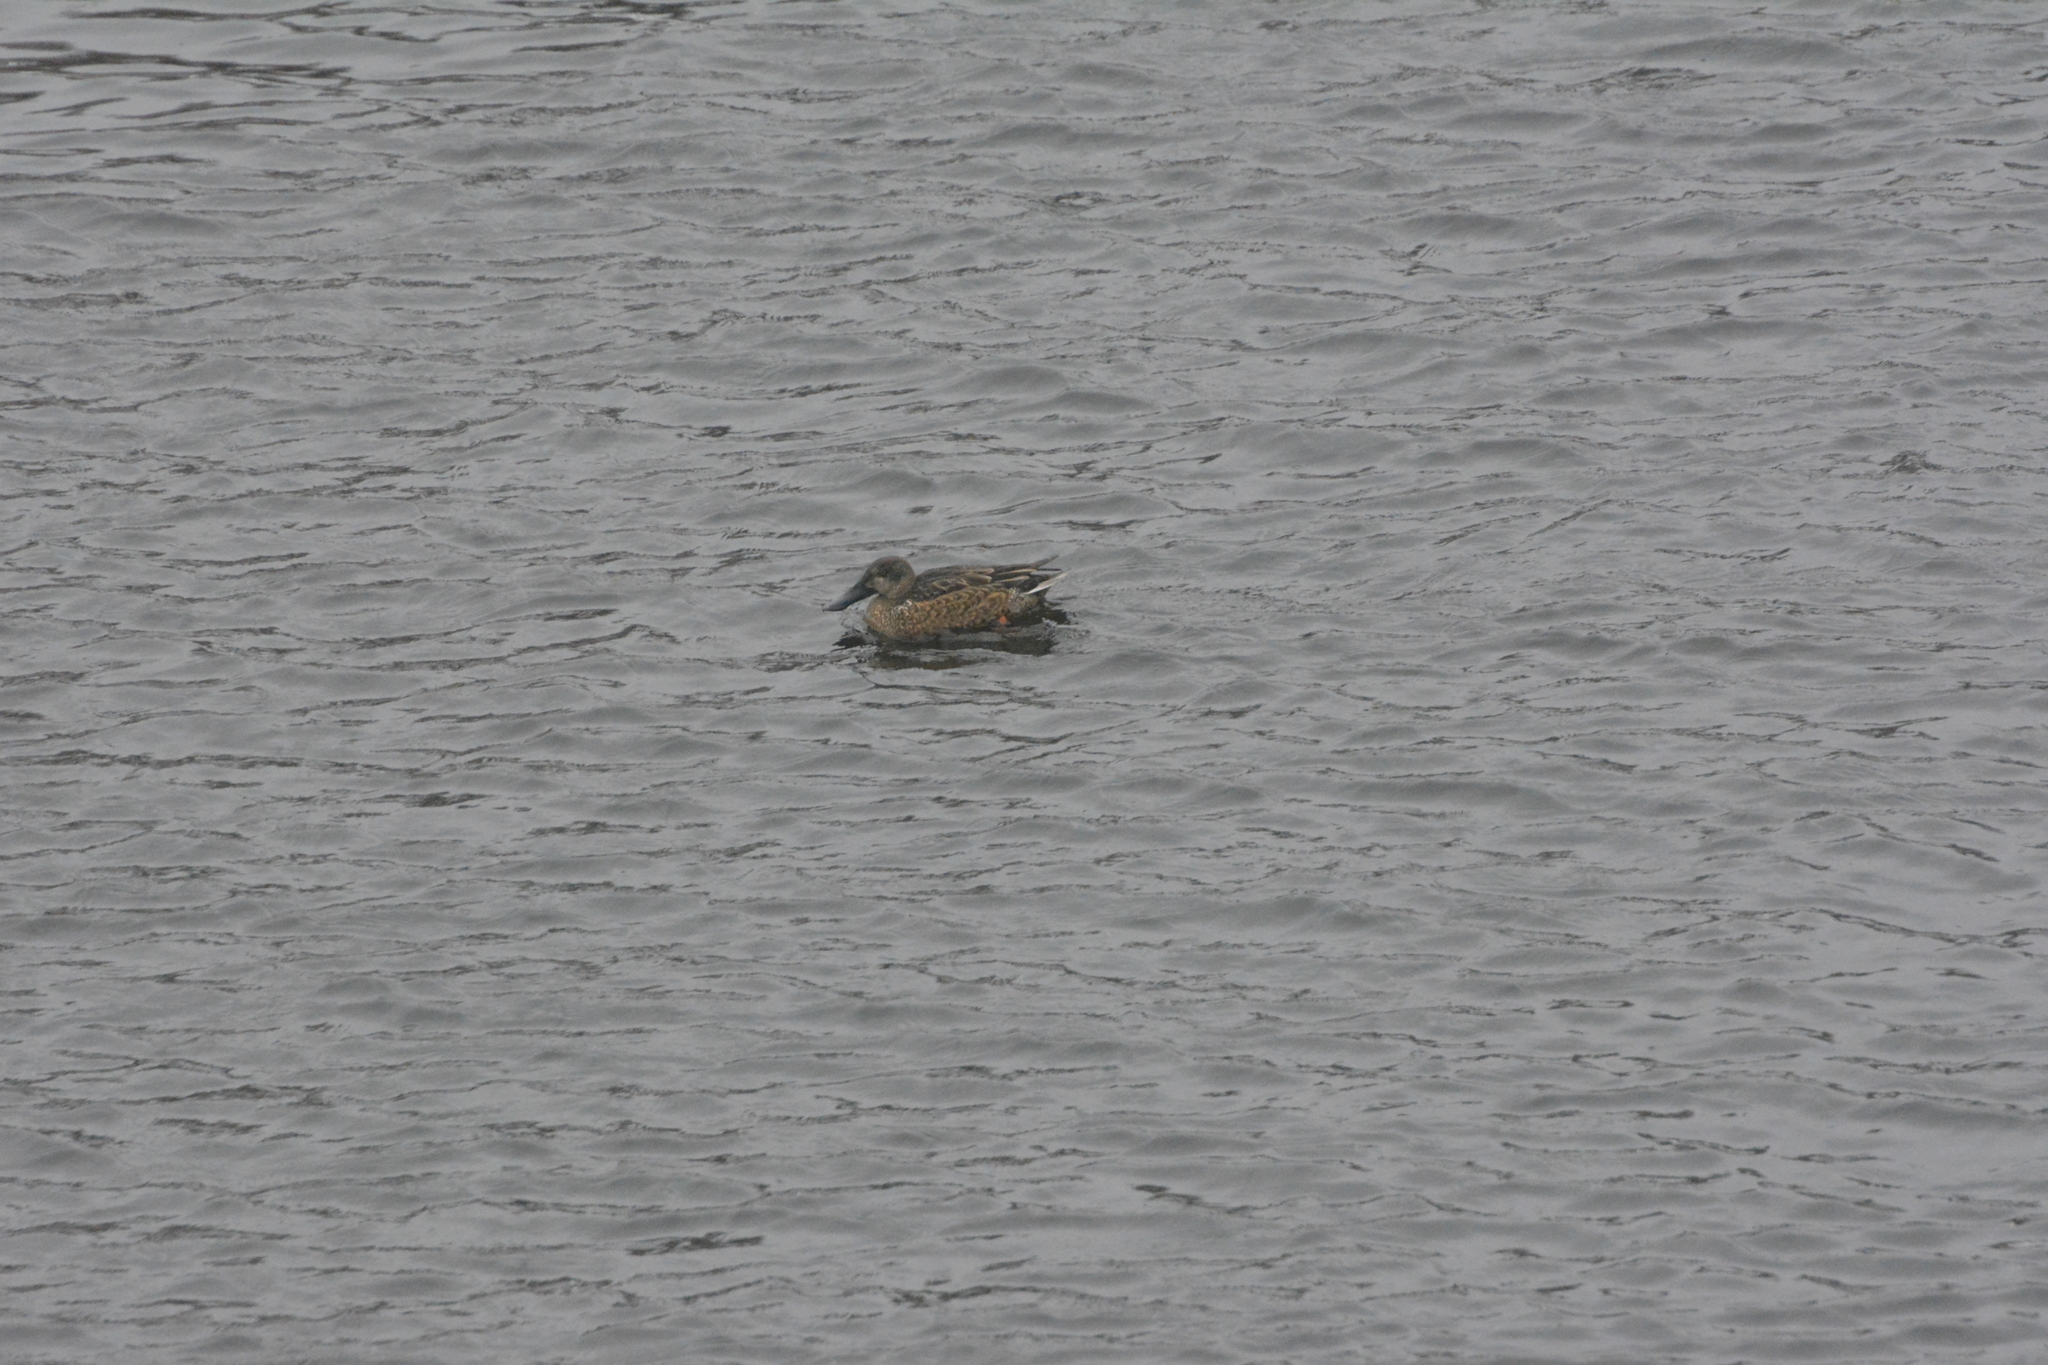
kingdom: Animalia
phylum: Chordata
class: Aves
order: Anseriformes
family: Anatidae
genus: Spatula
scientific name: Spatula clypeata
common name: Northern shoveler
